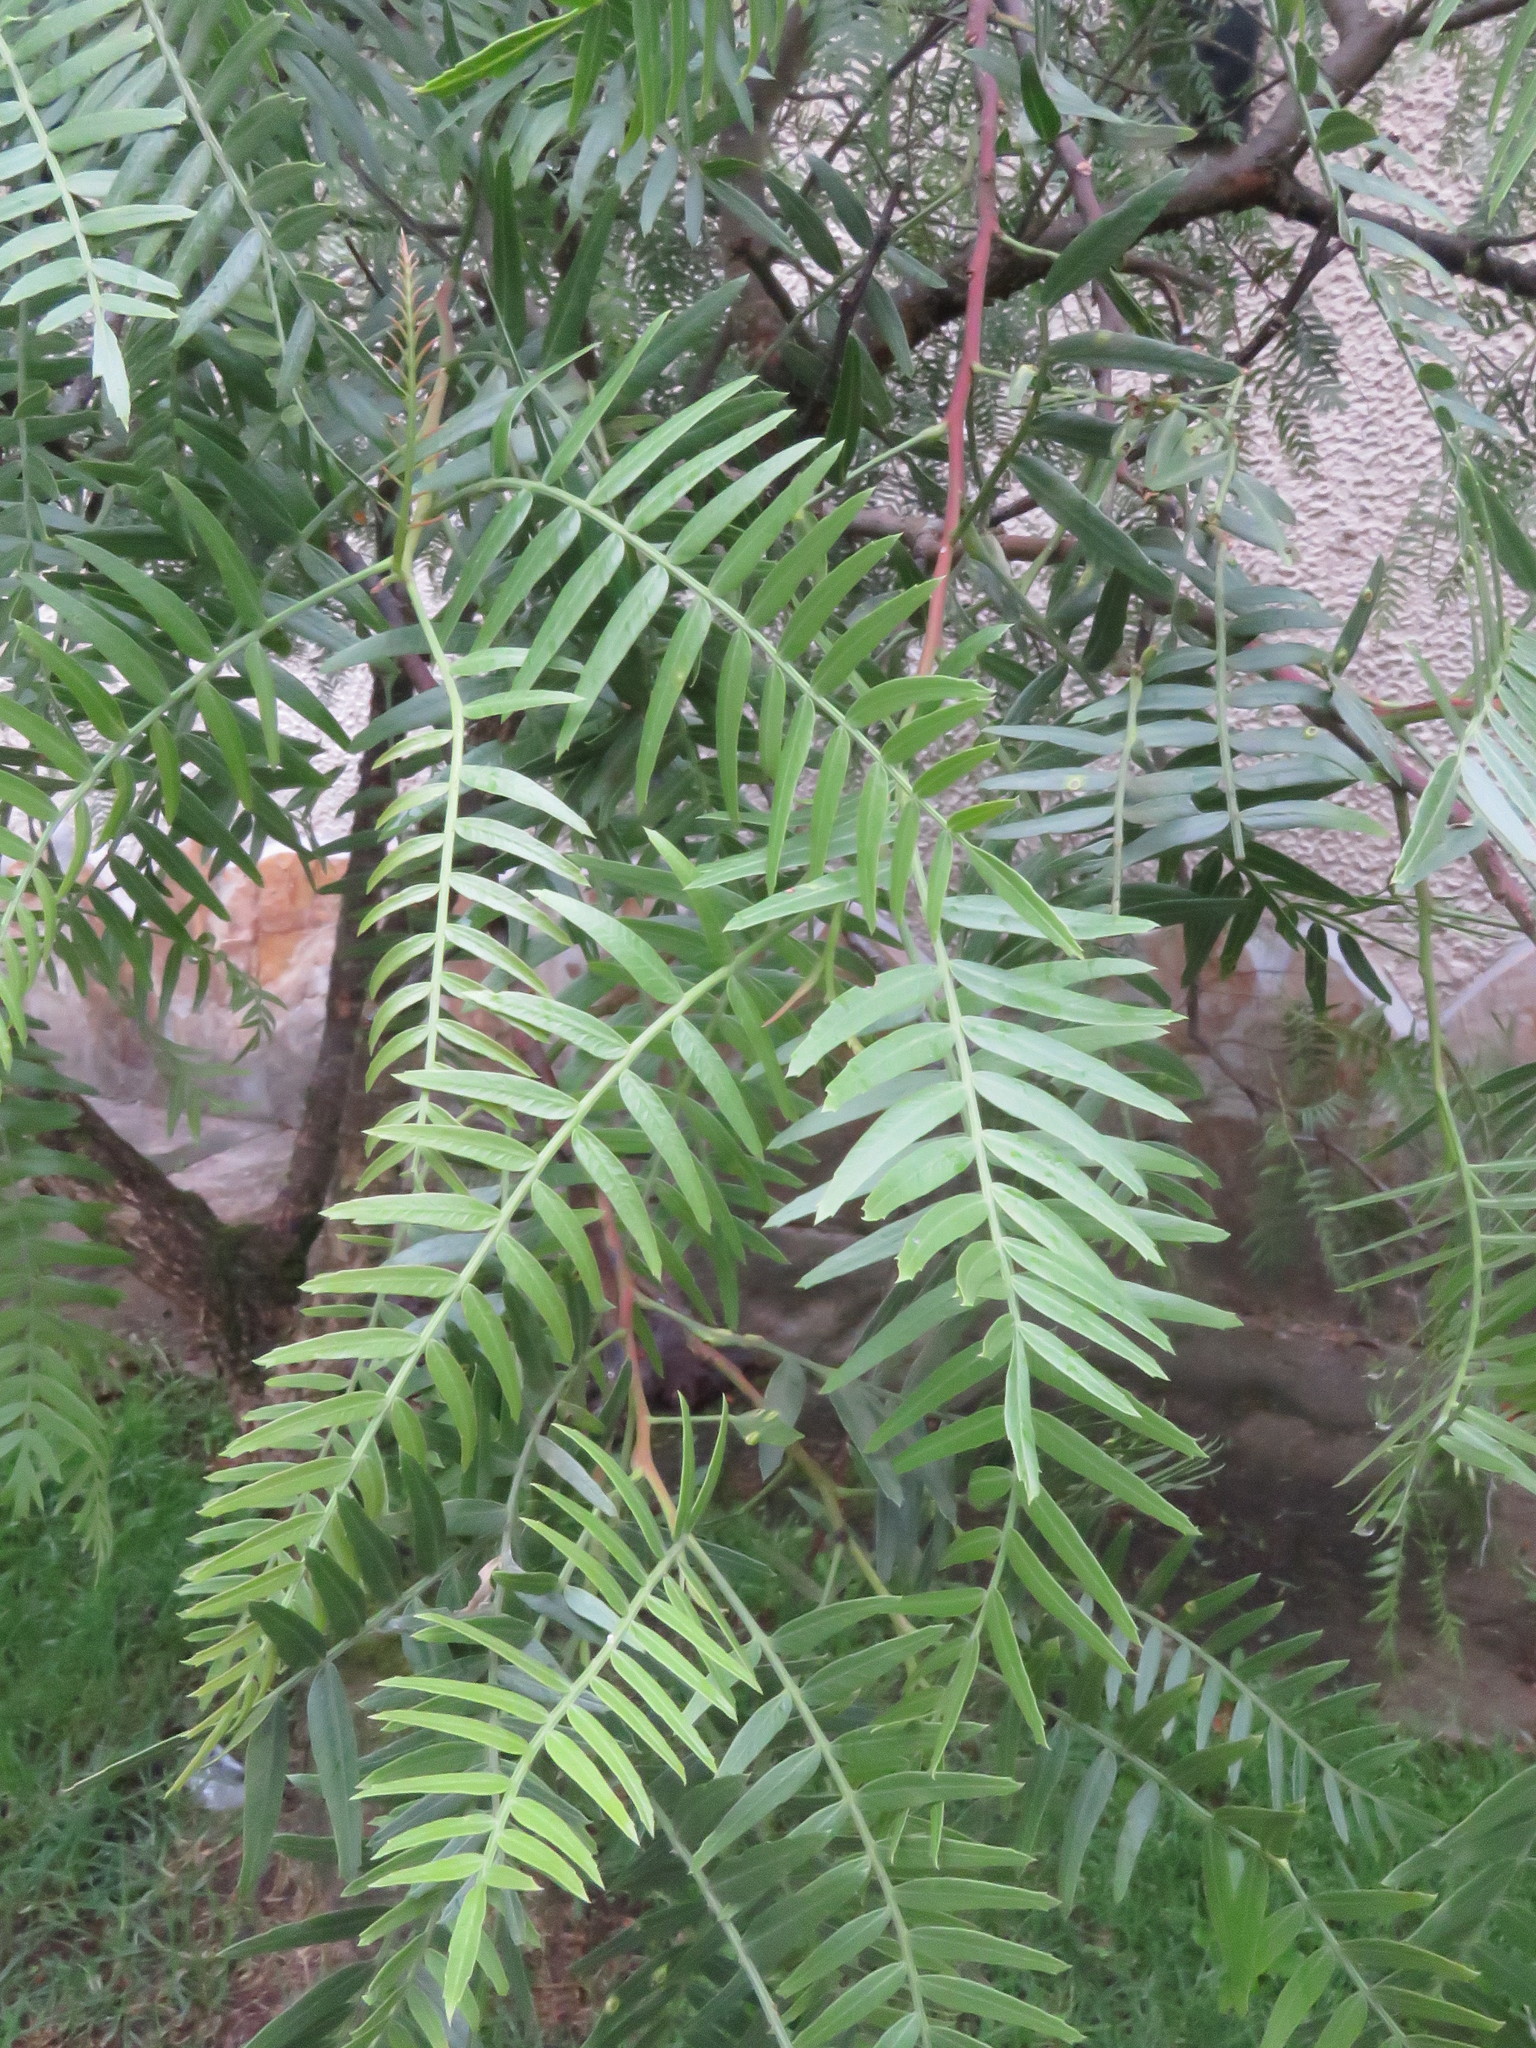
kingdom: Plantae
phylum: Tracheophyta
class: Magnoliopsida
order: Sapindales
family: Anacardiaceae
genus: Schinus
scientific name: Schinus molle
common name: Peruvian peppertree
